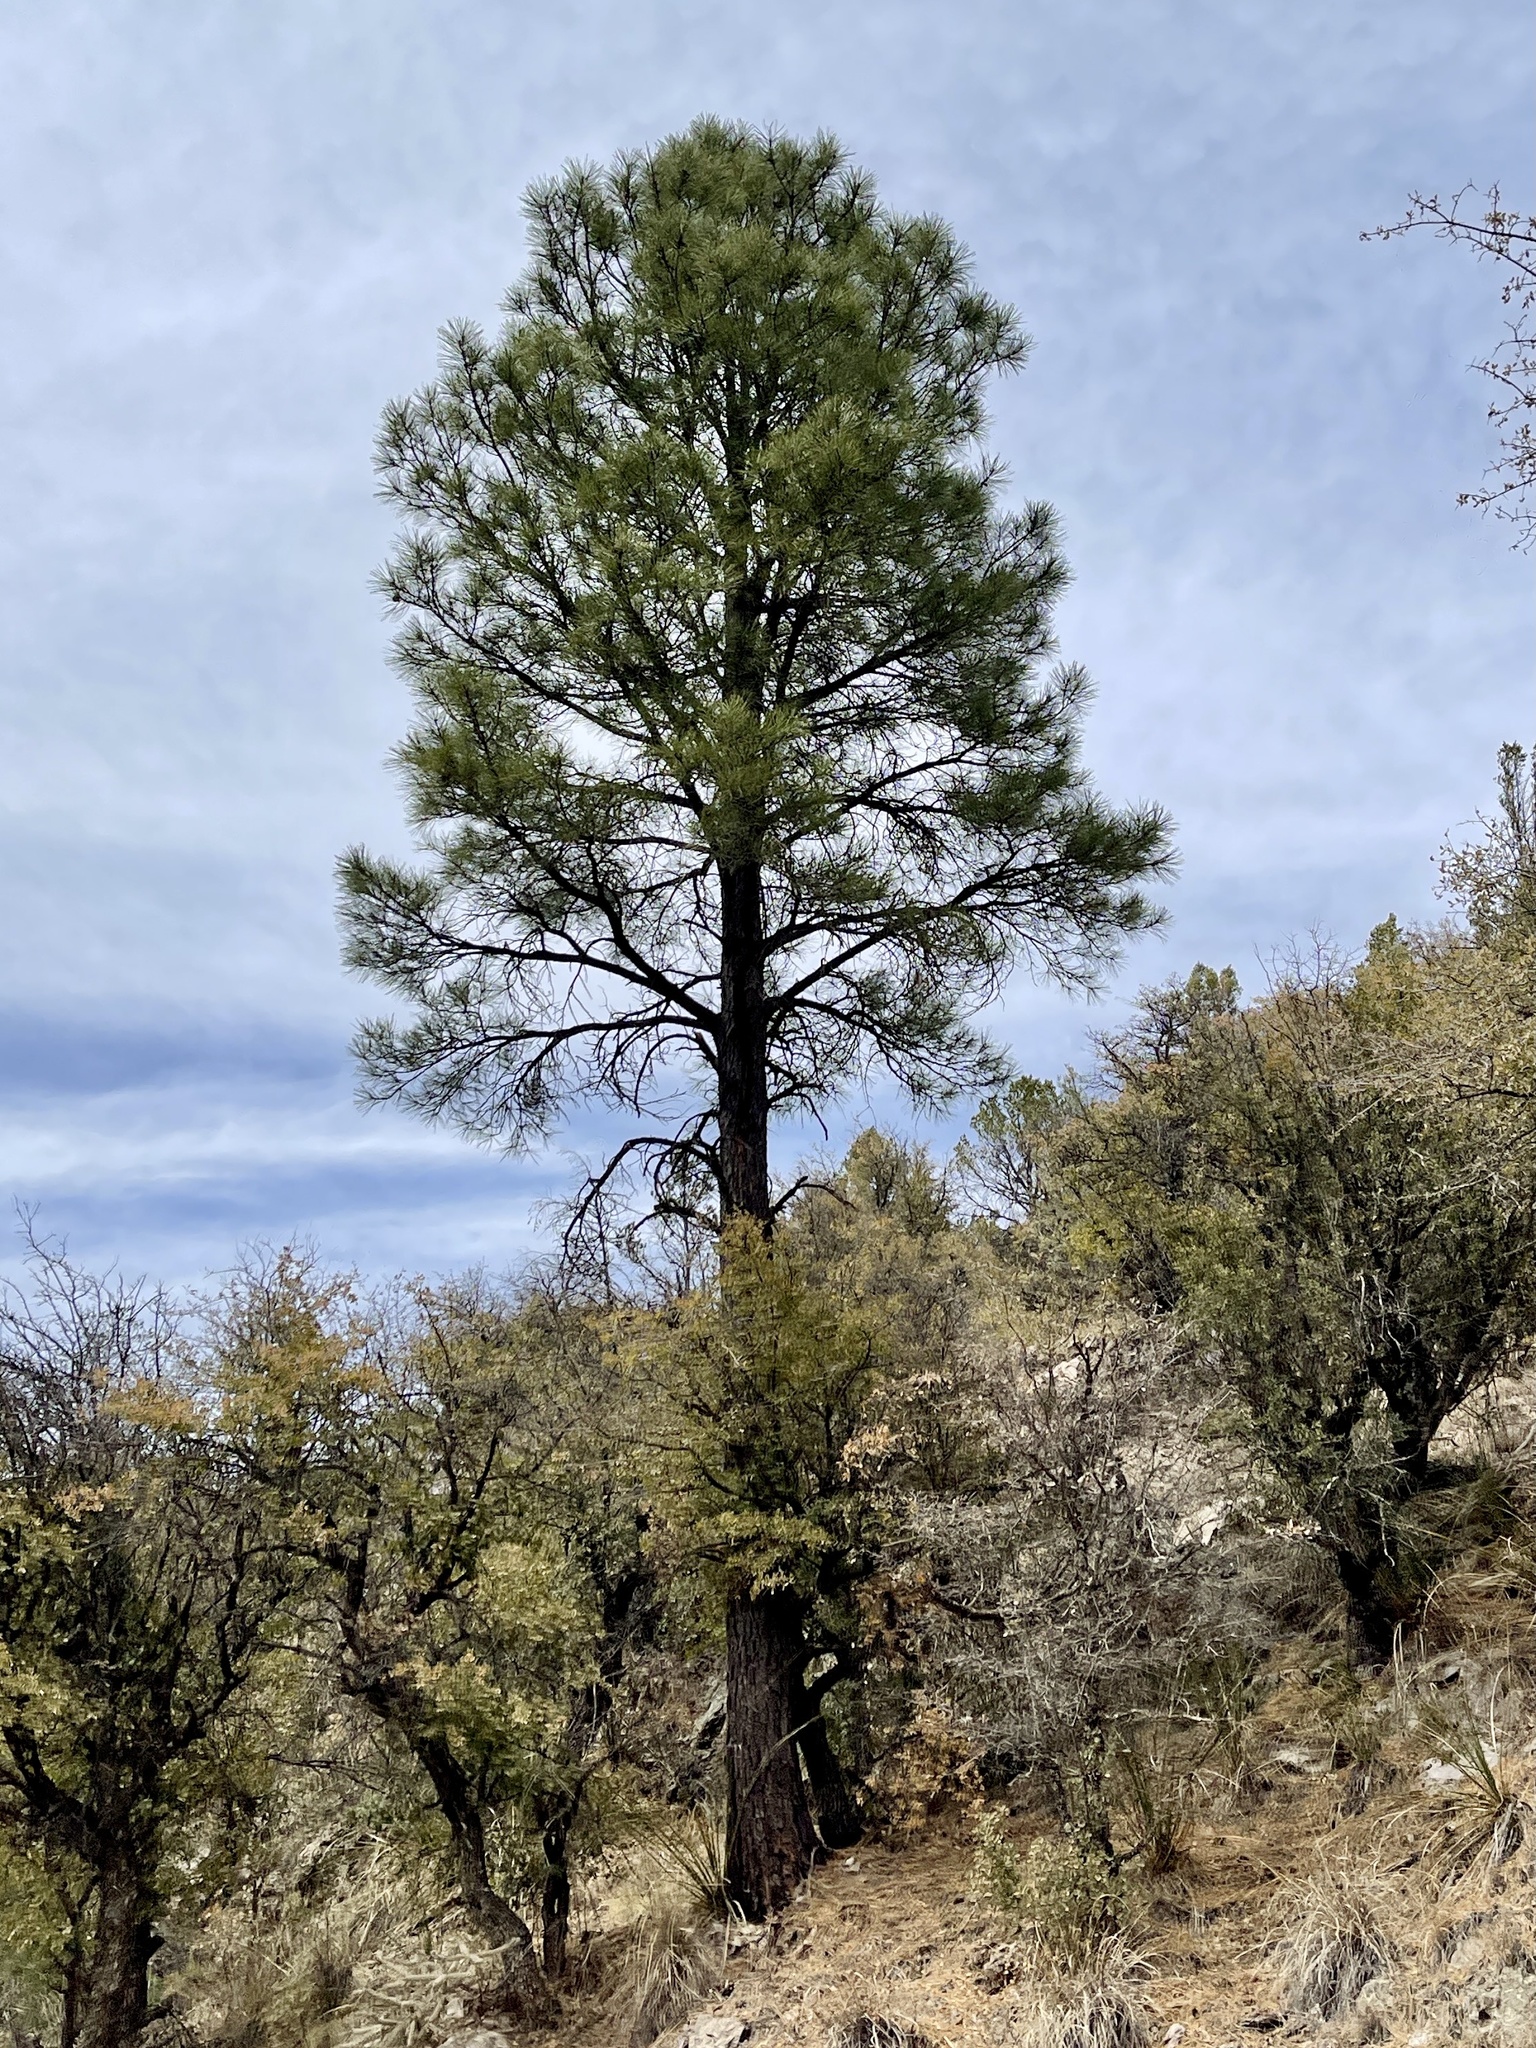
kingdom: Plantae
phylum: Tracheophyta
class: Pinopsida
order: Pinales
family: Pinaceae
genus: Pinus
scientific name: Pinus ponderosa
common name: Western yellow-pine
